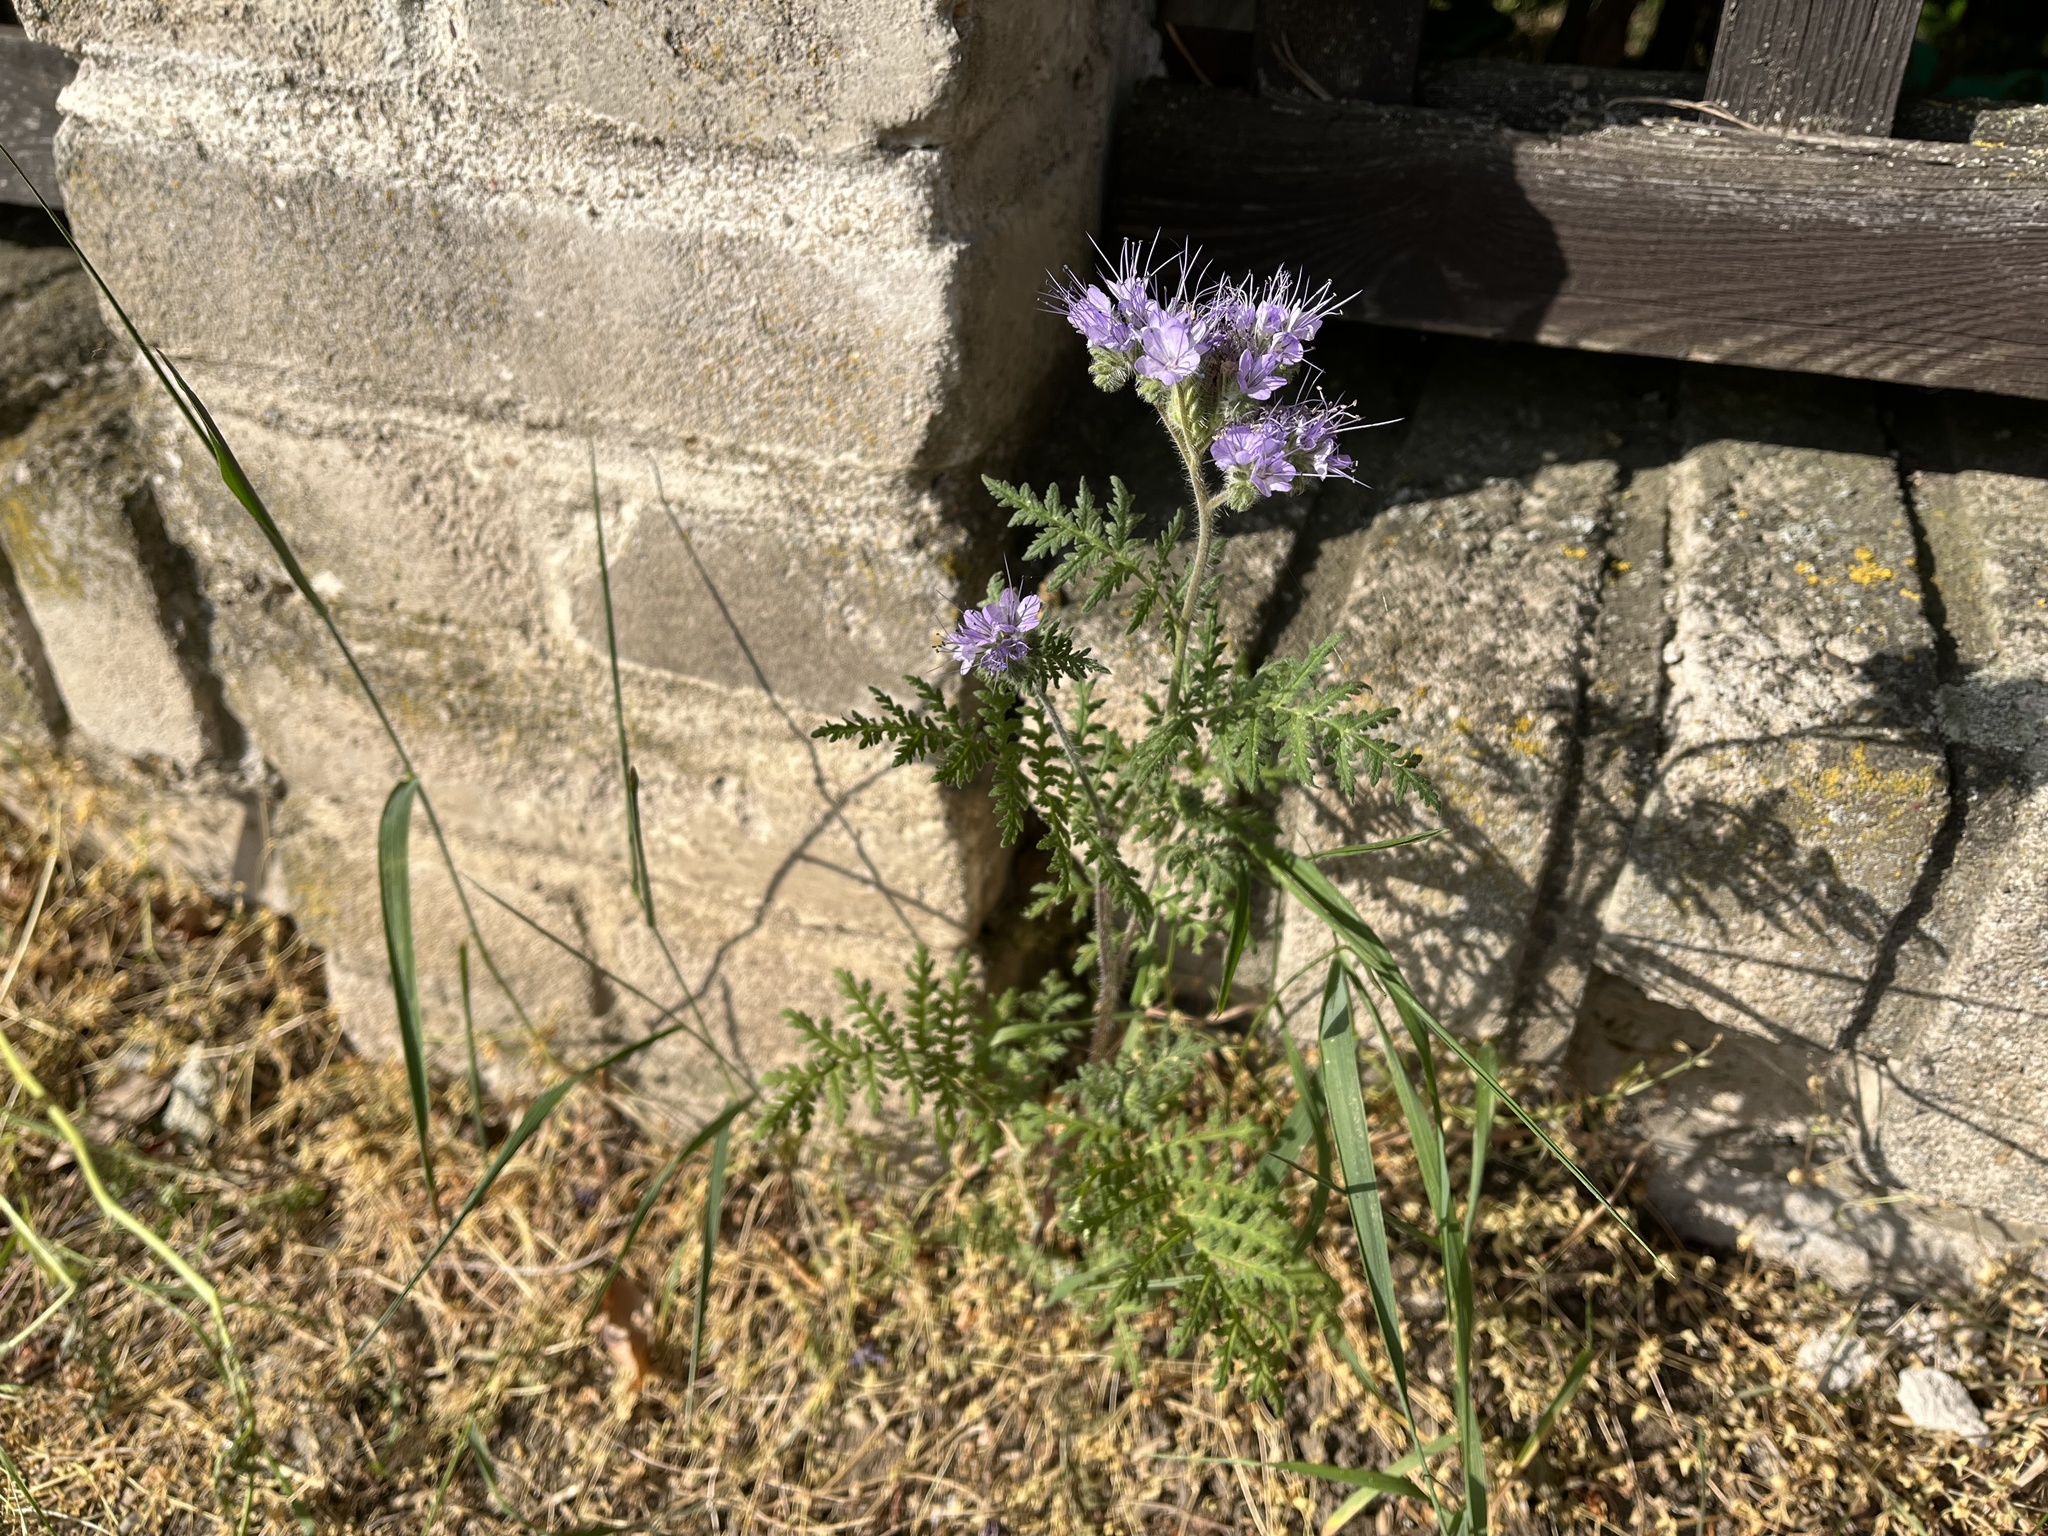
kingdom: Plantae
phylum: Tracheophyta
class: Magnoliopsida
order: Boraginales
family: Hydrophyllaceae
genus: Phacelia
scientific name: Phacelia tanacetifolia
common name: Phacelia
